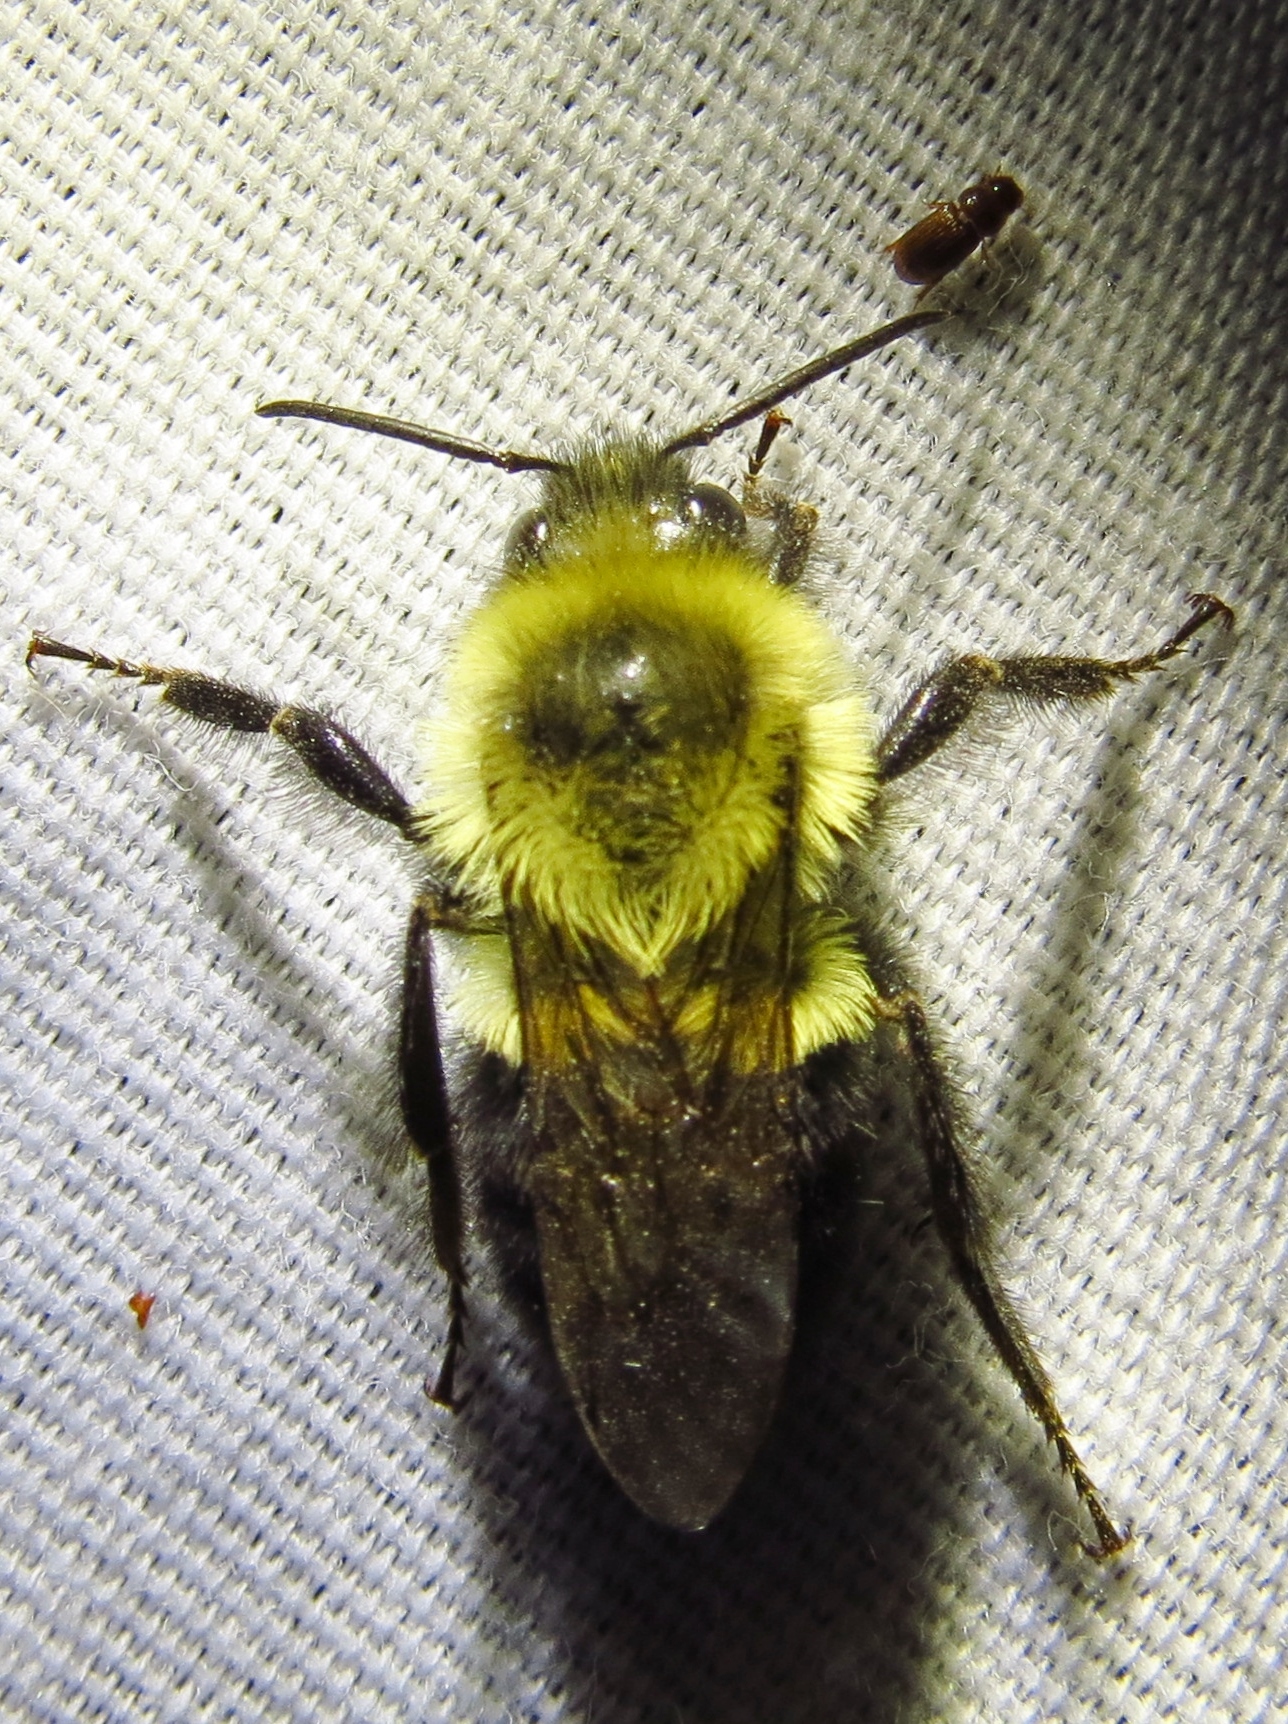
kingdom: Animalia
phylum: Arthropoda
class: Insecta
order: Hymenoptera
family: Apidae
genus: Bombus
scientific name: Bombus impatiens
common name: Common eastern bumble bee
